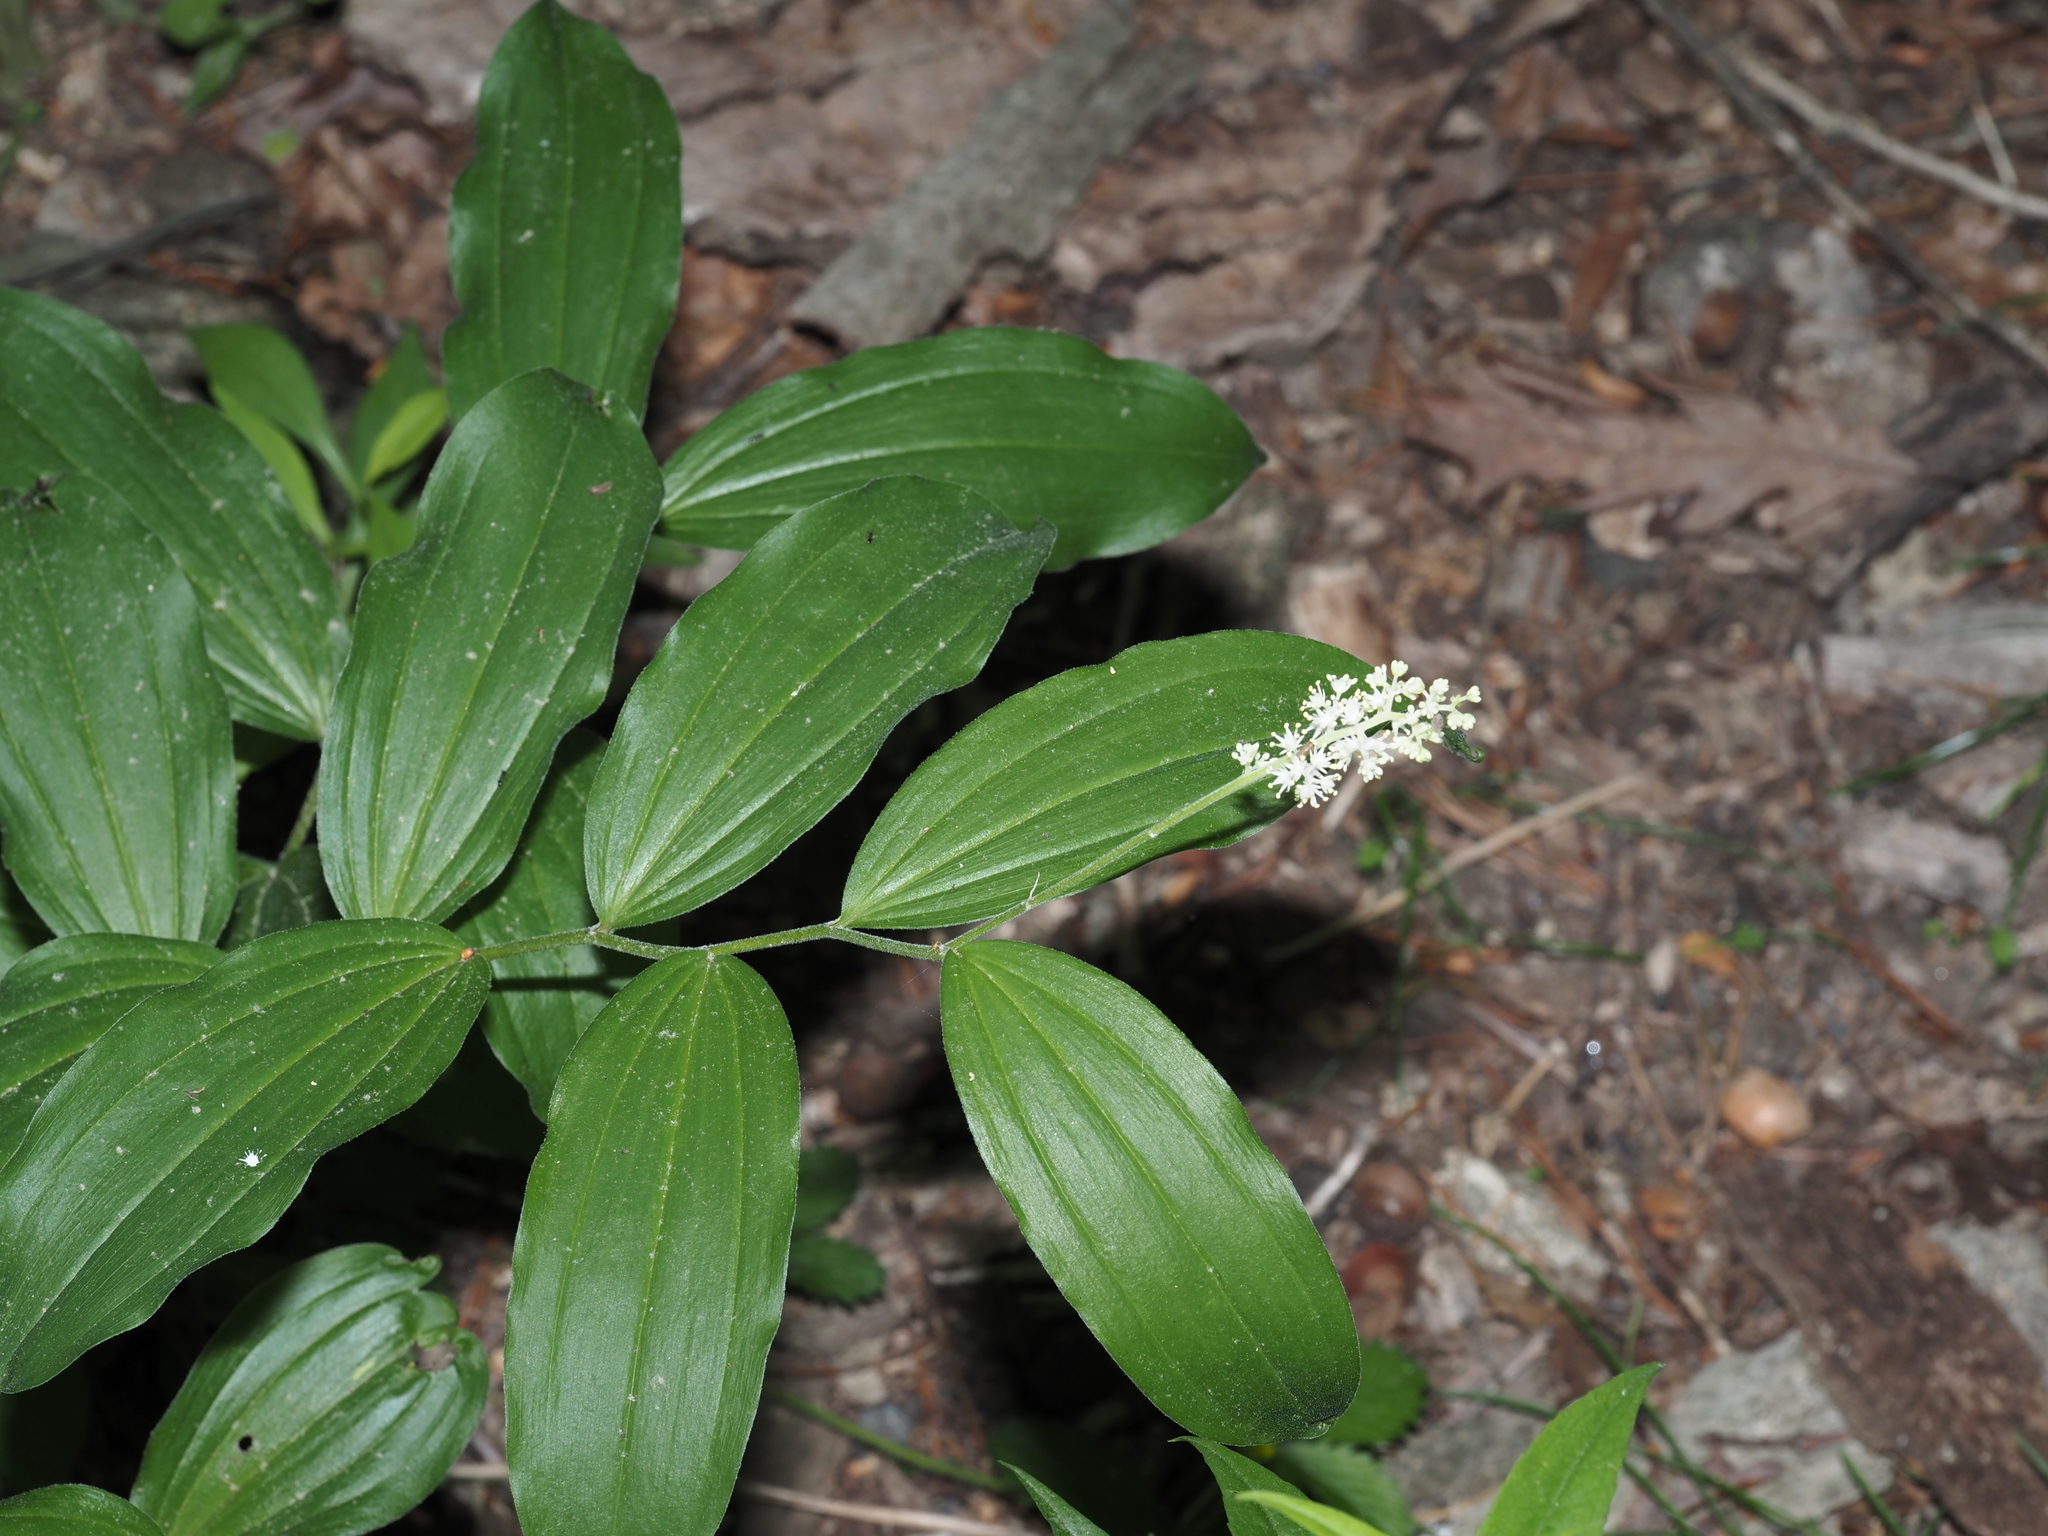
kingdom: Plantae
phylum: Tracheophyta
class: Liliopsida
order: Asparagales
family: Asparagaceae
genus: Maianthemum
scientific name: Maianthemum racemosum
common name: False spikenard
